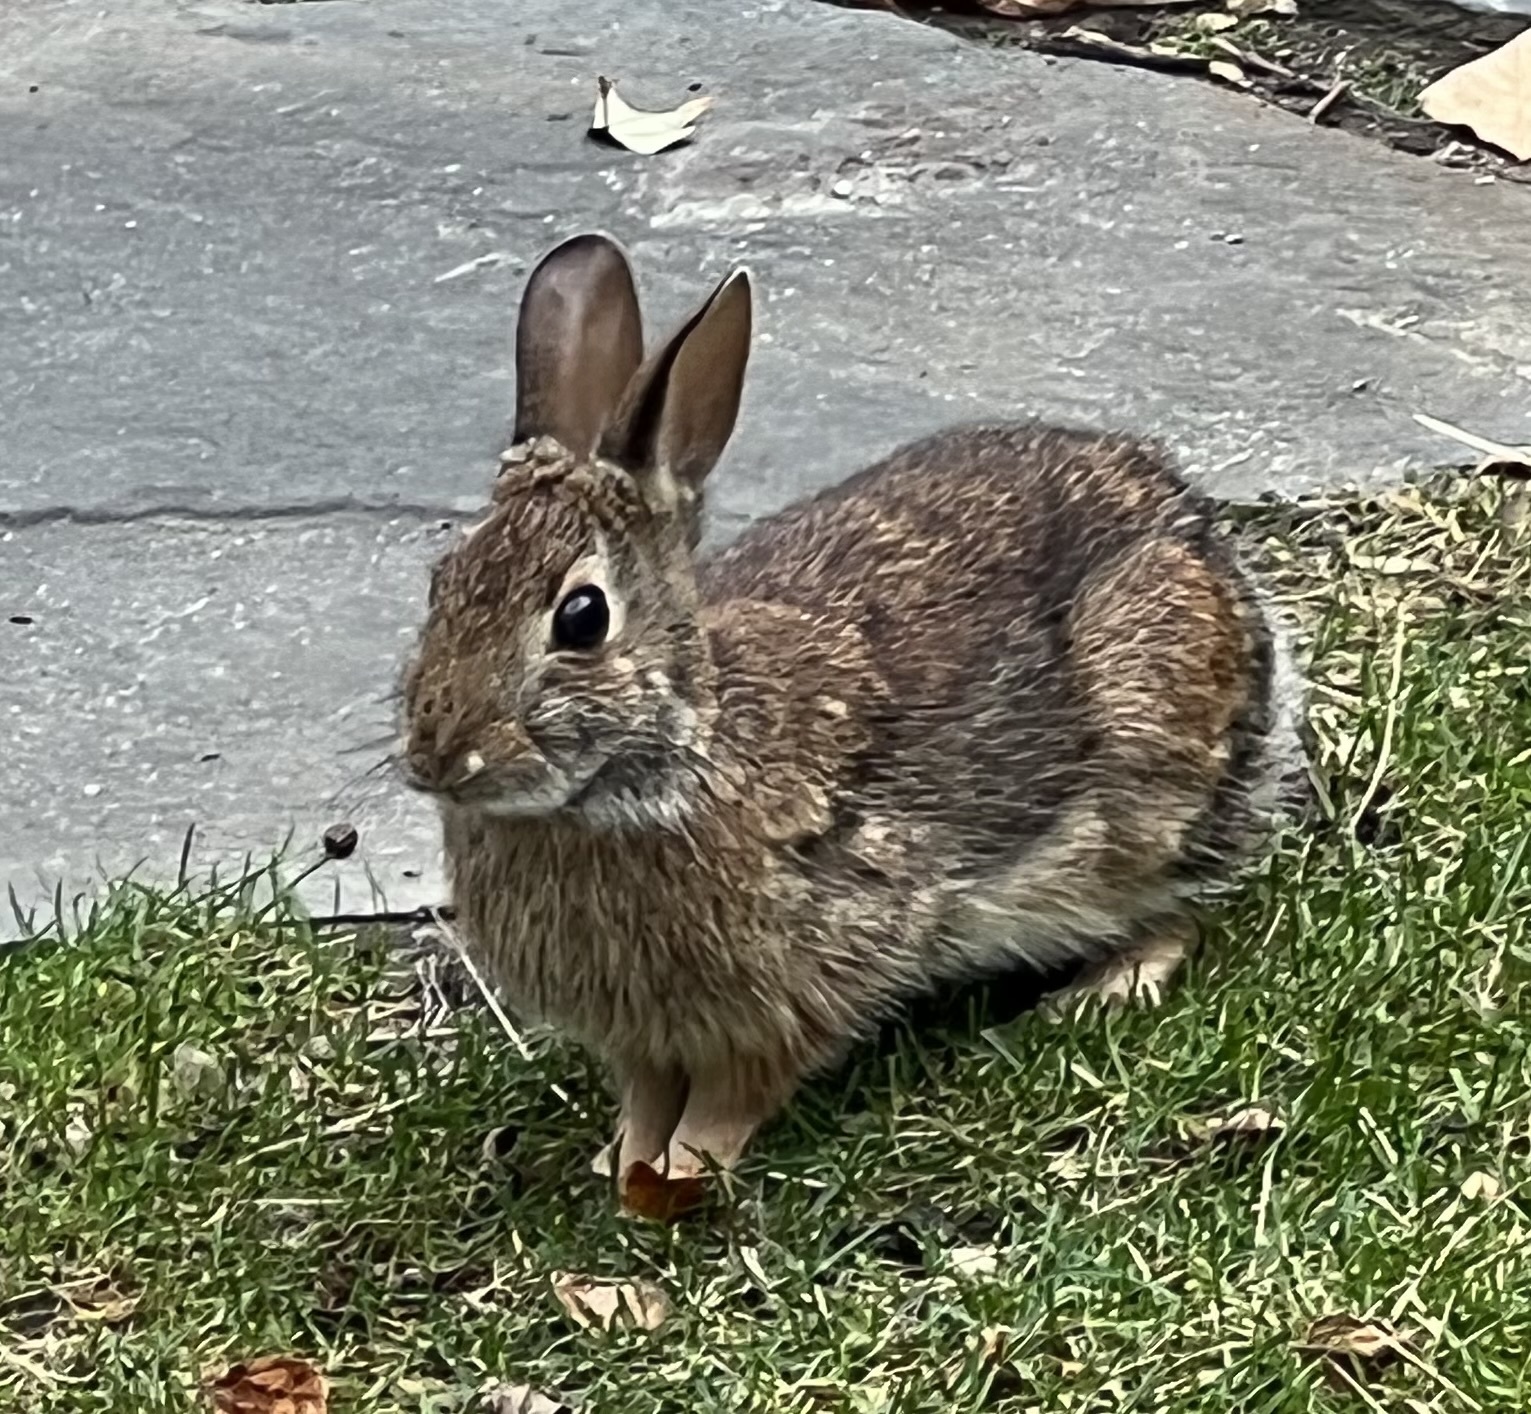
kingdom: Animalia
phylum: Chordata
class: Mammalia
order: Lagomorpha
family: Leporidae
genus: Sylvilagus
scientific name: Sylvilagus floridanus
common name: Eastern cottontail
